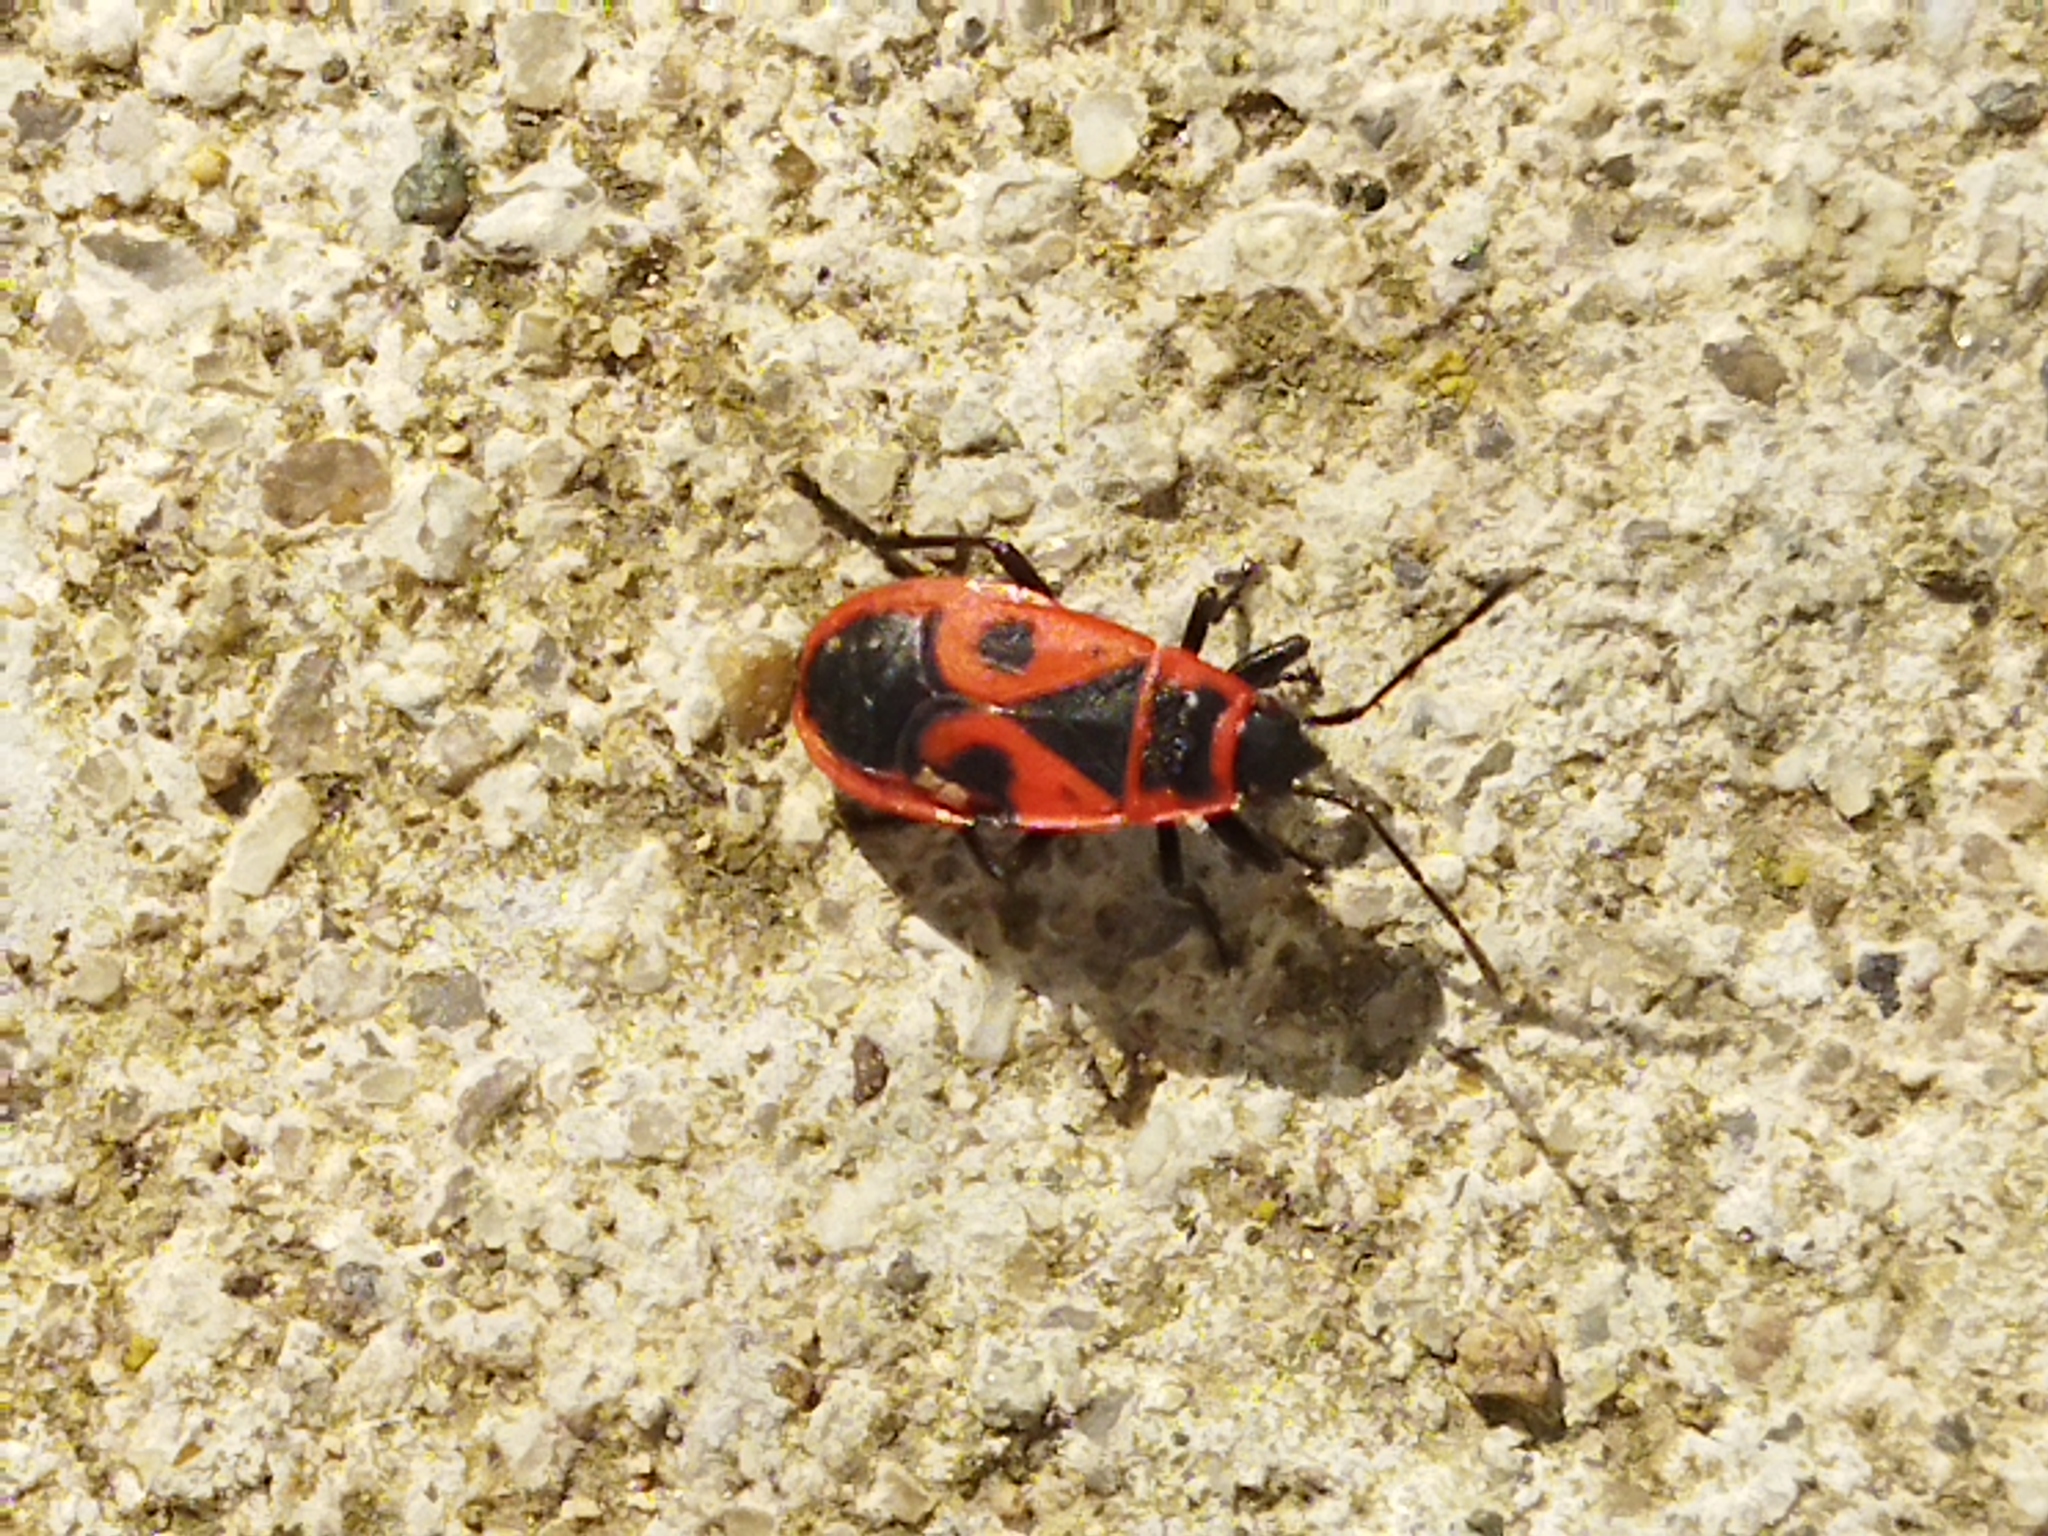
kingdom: Animalia
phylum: Arthropoda
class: Insecta
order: Hemiptera
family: Pyrrhocoridae
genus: Pyrrhocoris
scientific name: Pyrrhocoris apterus
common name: Firebug
